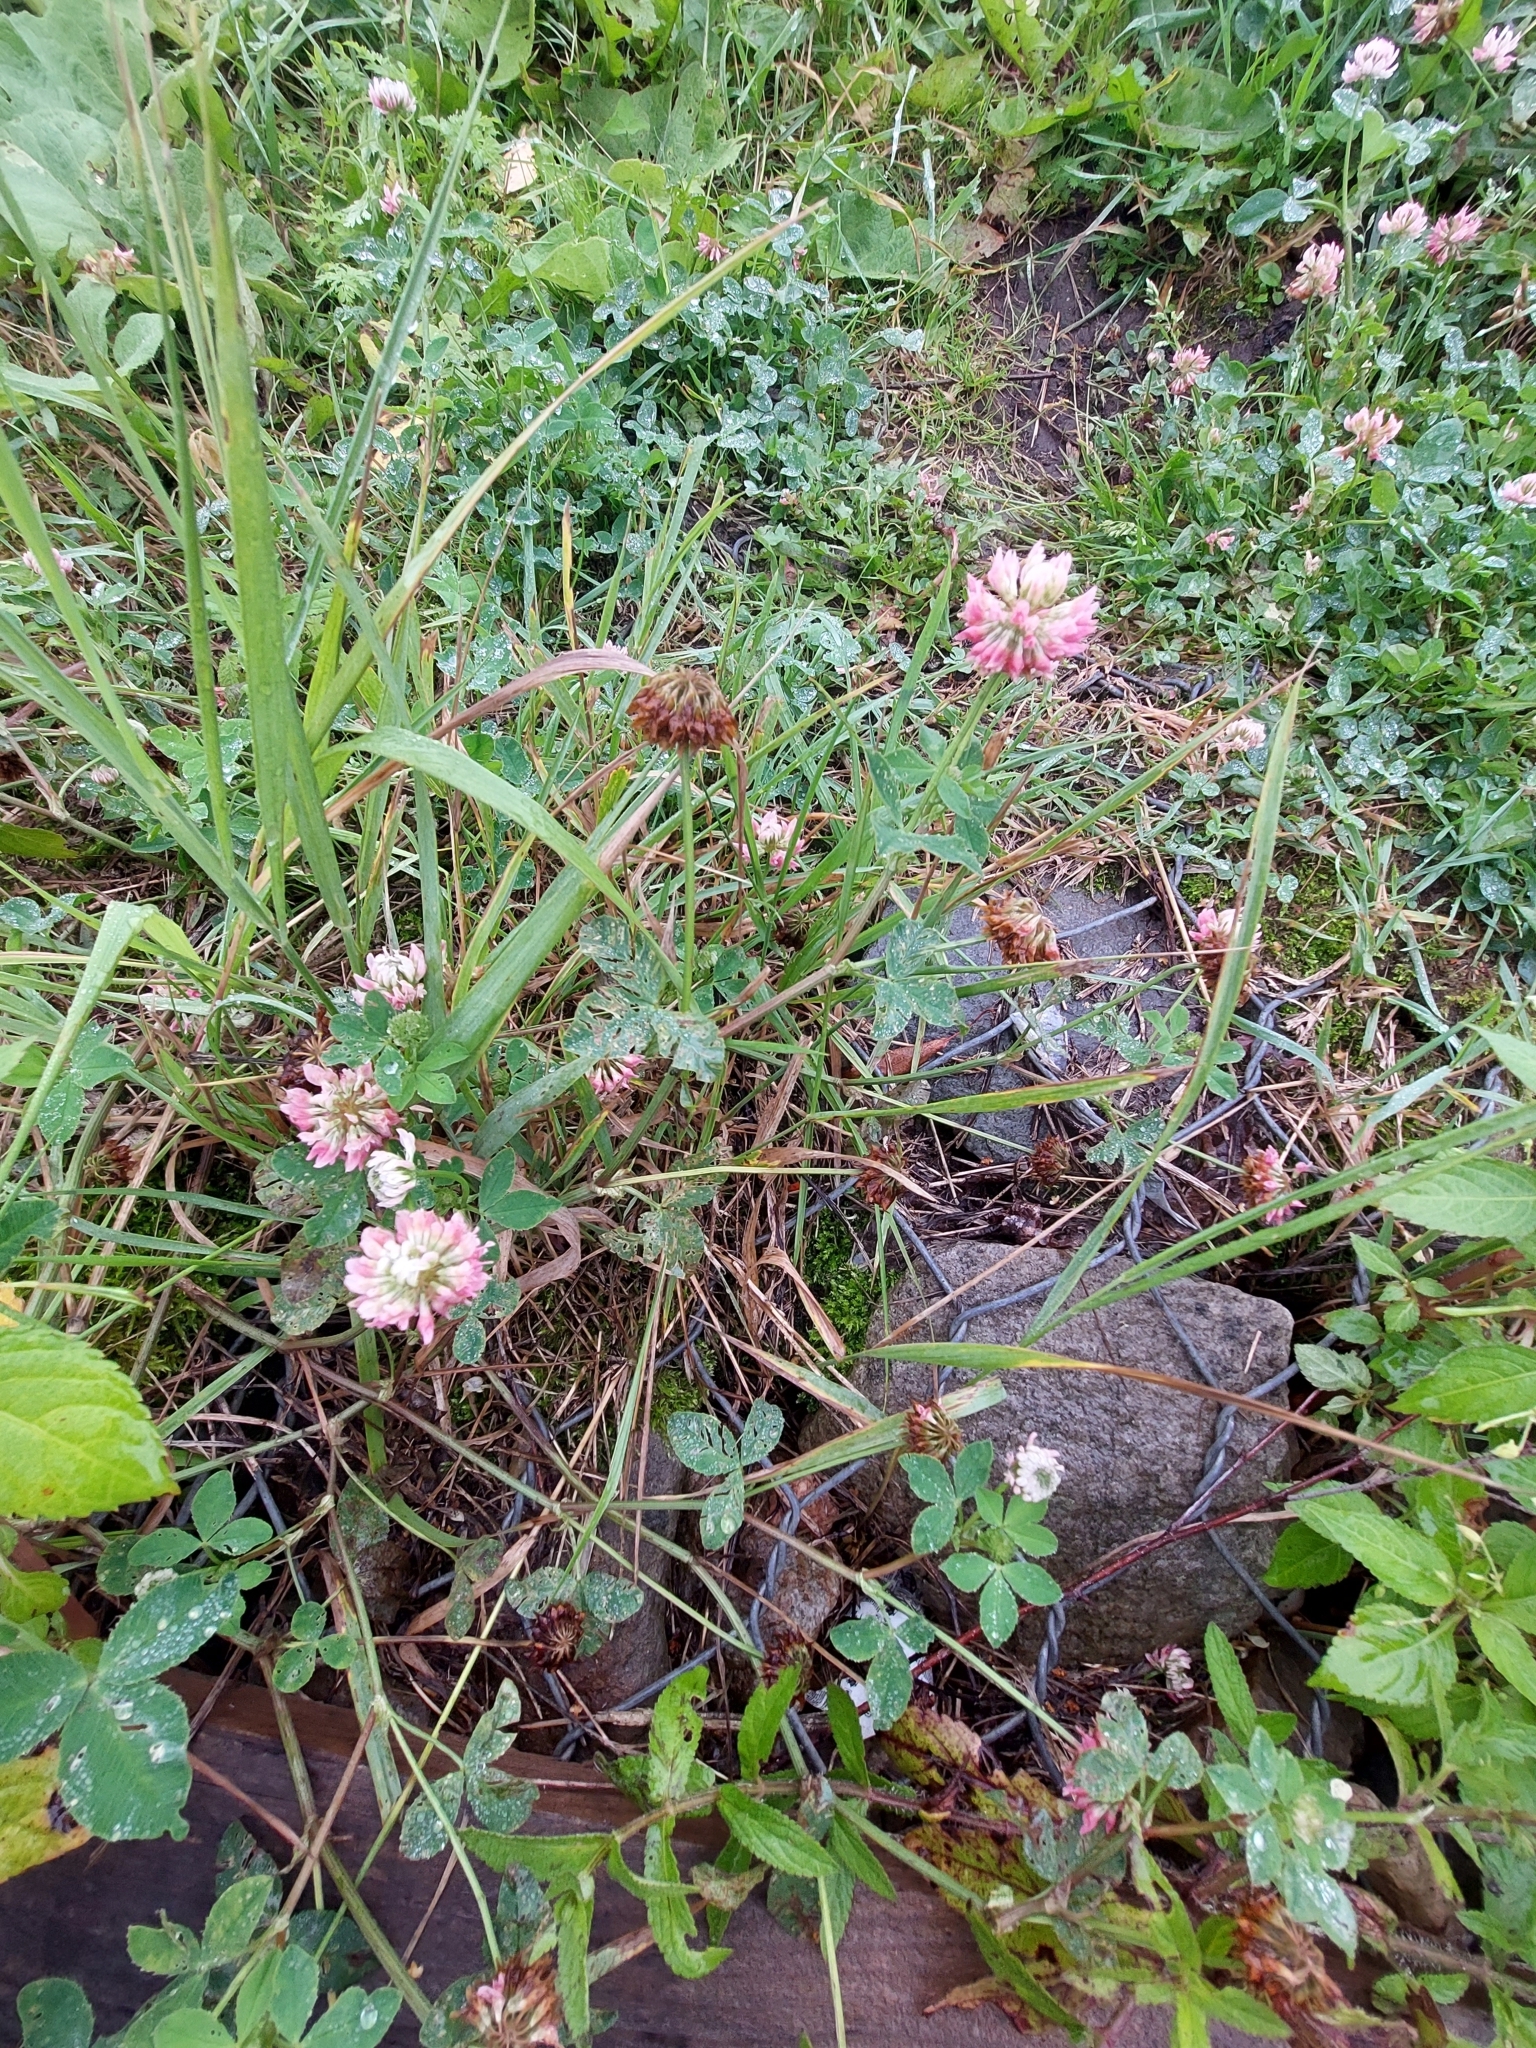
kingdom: Plantae
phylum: Tracheophyta
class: Magnoliopsida
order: Fabales
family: Fabaceae
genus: Trifolium
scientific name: Trifolium hybridum
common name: Alsike clover
